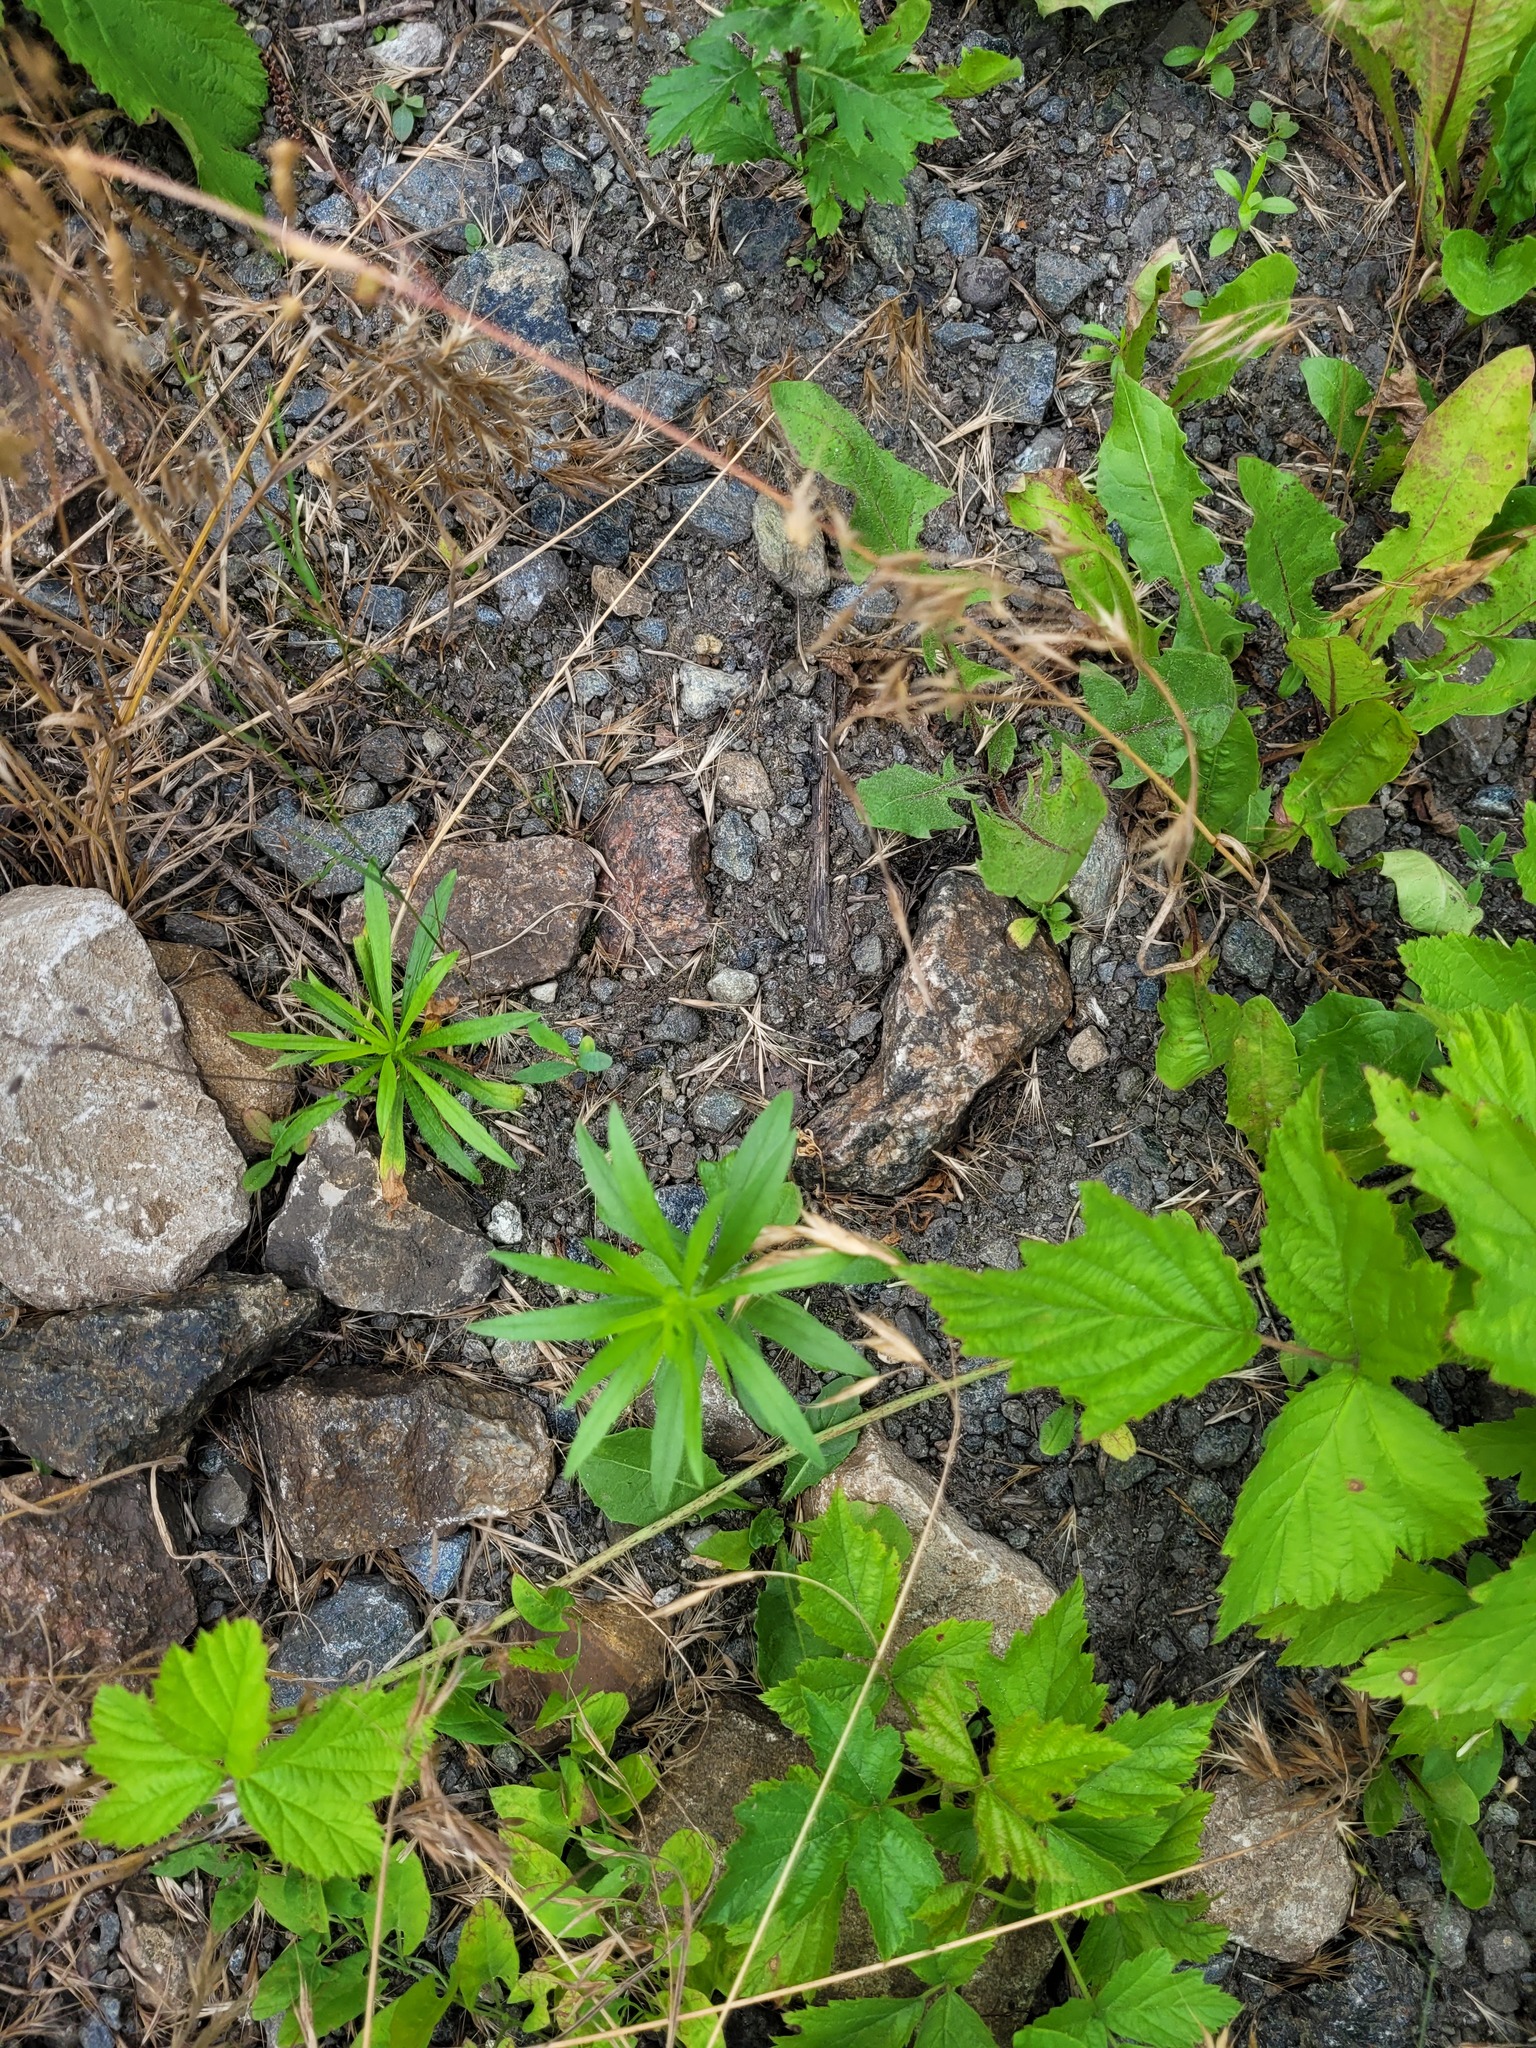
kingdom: Plantae
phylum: Tracheophyta
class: Magnoliopsida
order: Asterales
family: Asteraceae
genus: Erigeron
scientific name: Erigeron canadensis
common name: Canadian fleabane
